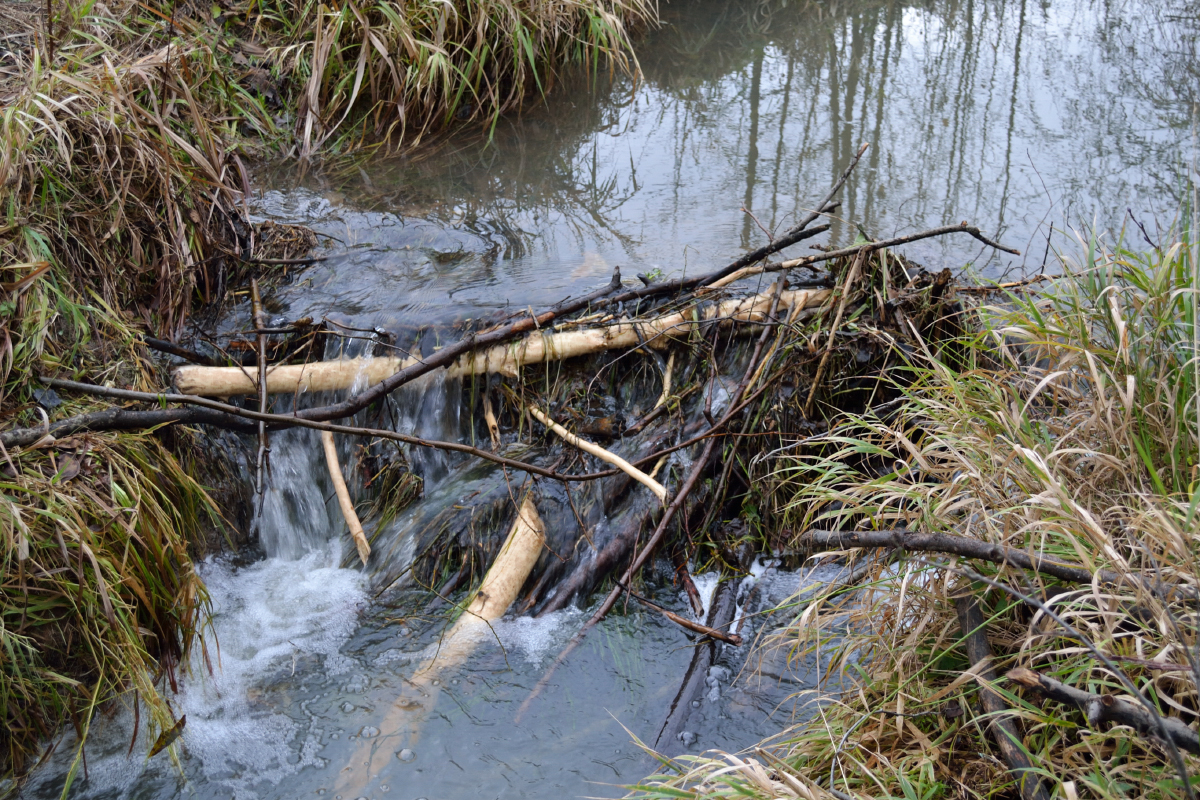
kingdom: Animalia
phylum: Chordata
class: Mammalia
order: Rodentia
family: Castoridae
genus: Castor
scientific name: Castor fiber
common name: Eurasian beaver
